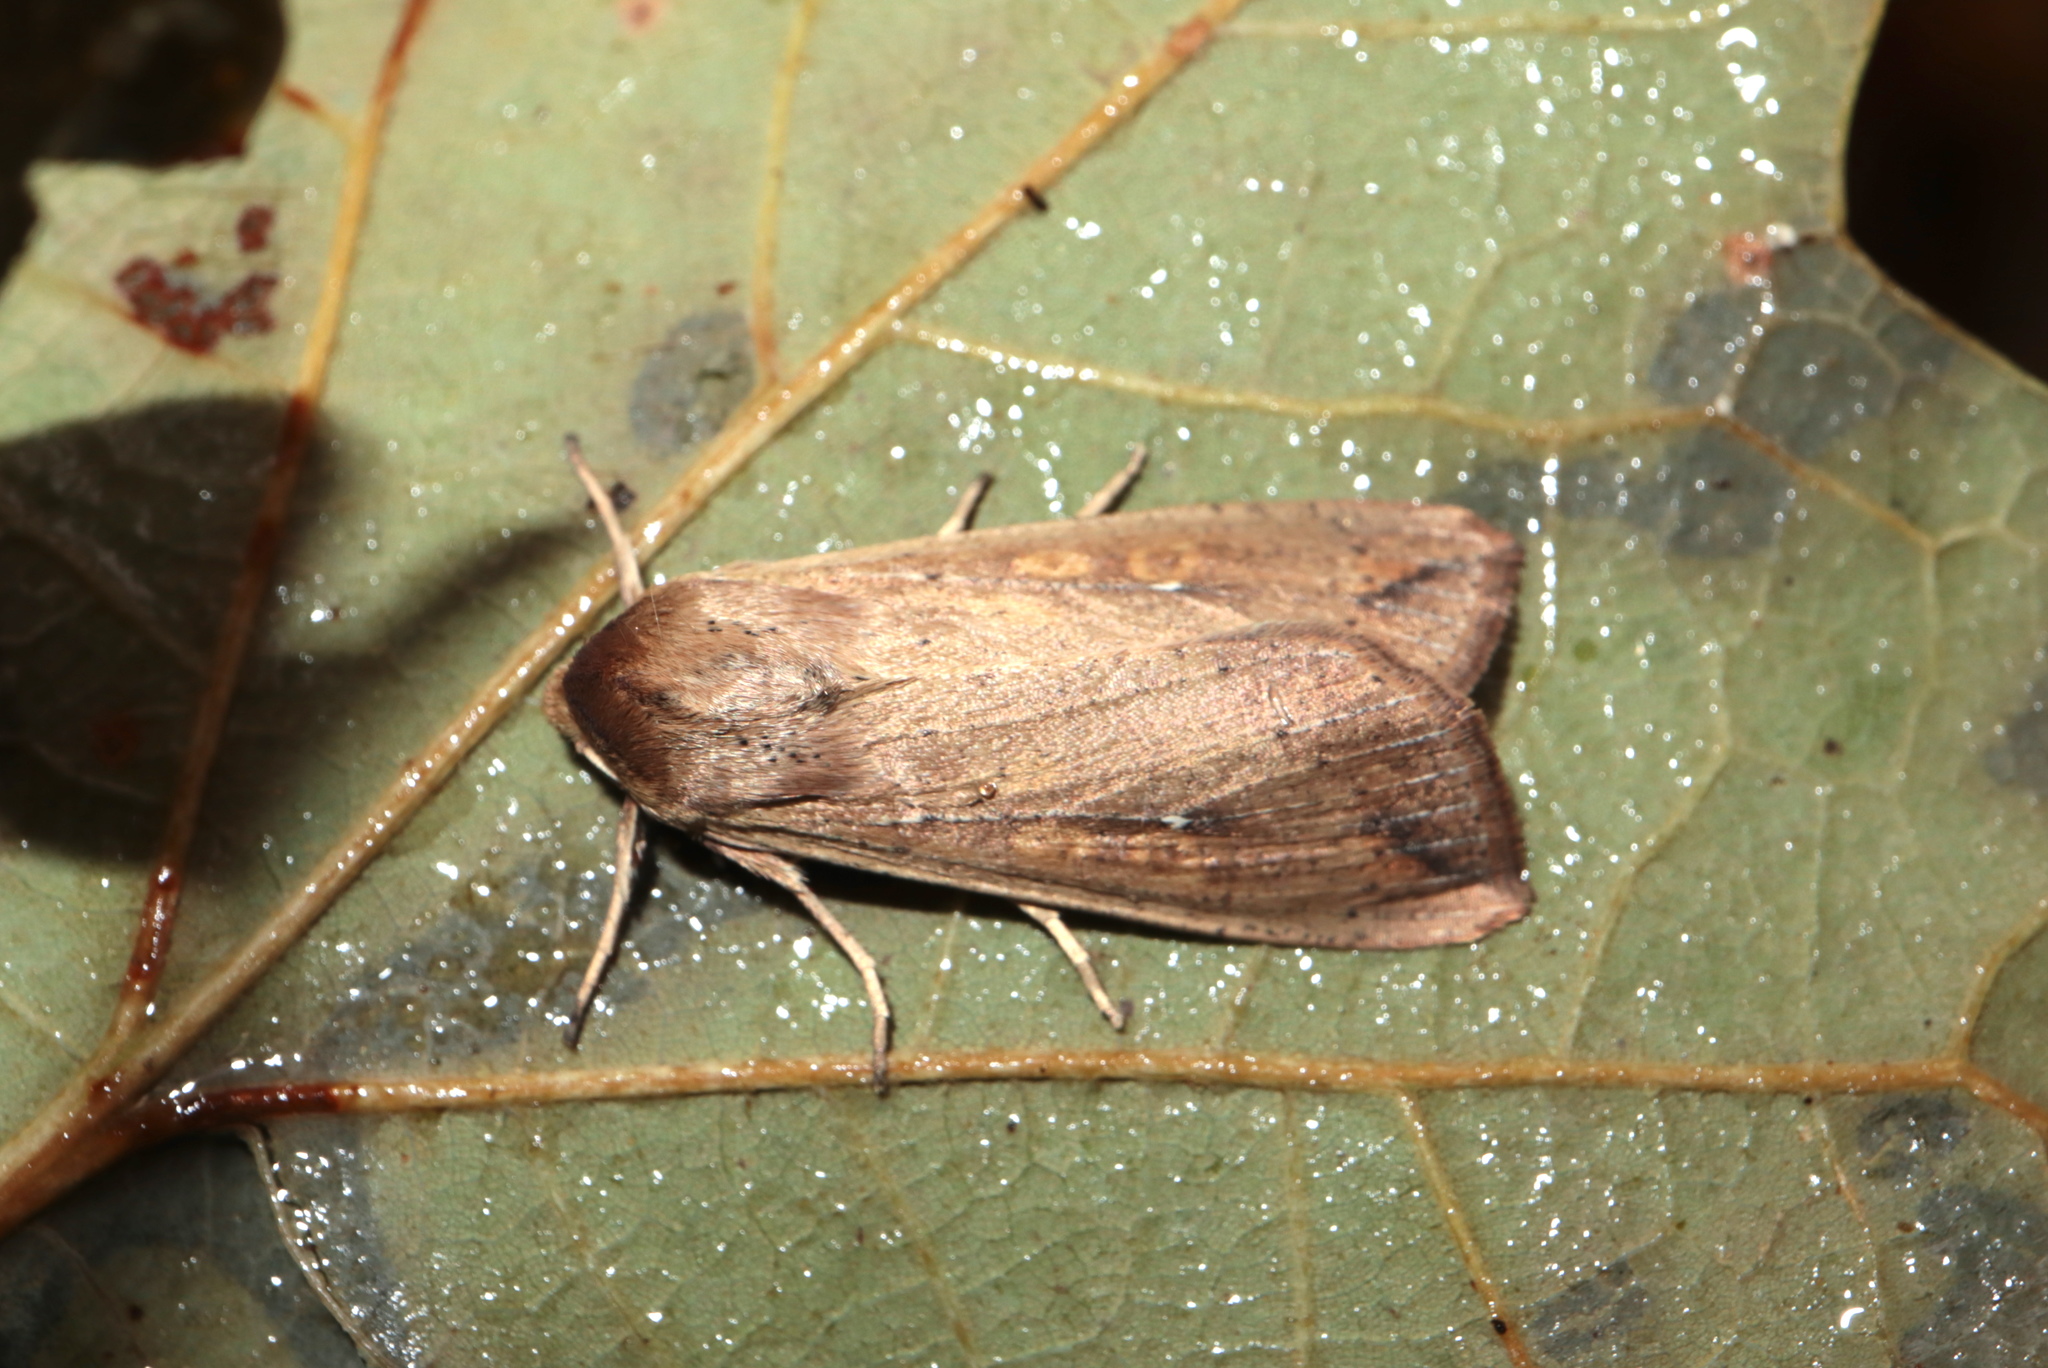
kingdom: Animalia
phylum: Arthropoda
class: Insecta
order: Lepidoptera
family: Noctuidae
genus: Mythimna
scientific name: Mythimna unipuncta
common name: White-speck
